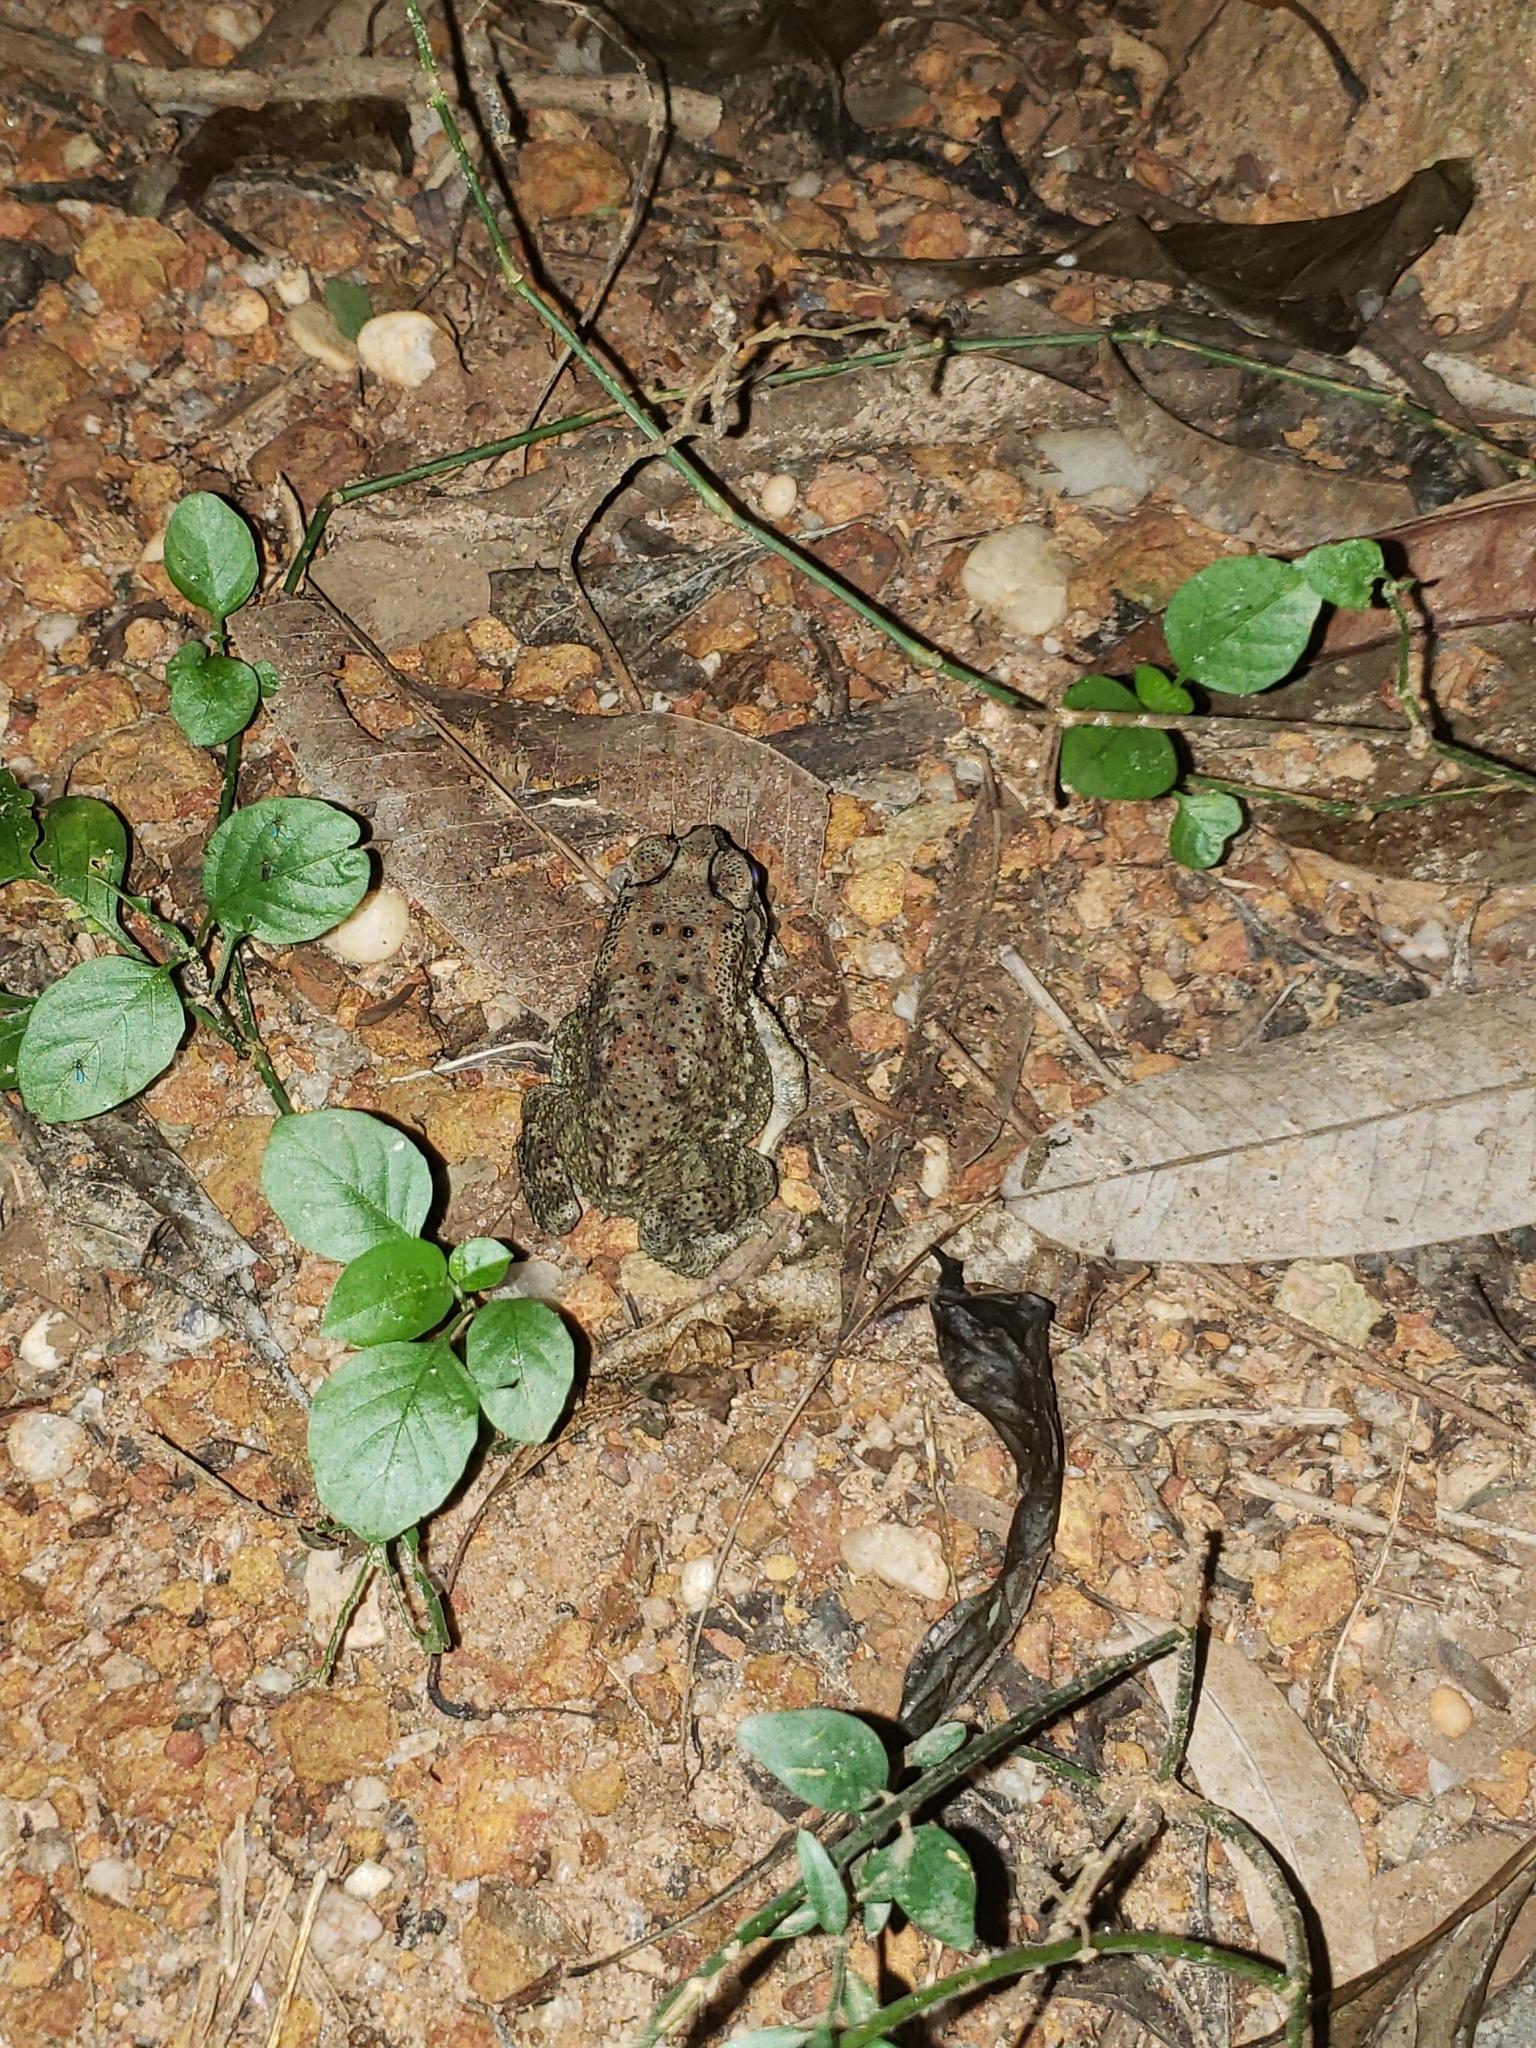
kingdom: Animalia
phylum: Chordata
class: Amphibia
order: Anura
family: Bufonidae
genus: Duttaphrynus
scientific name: Duttaphrynus melanostictus
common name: Common sunda toad
